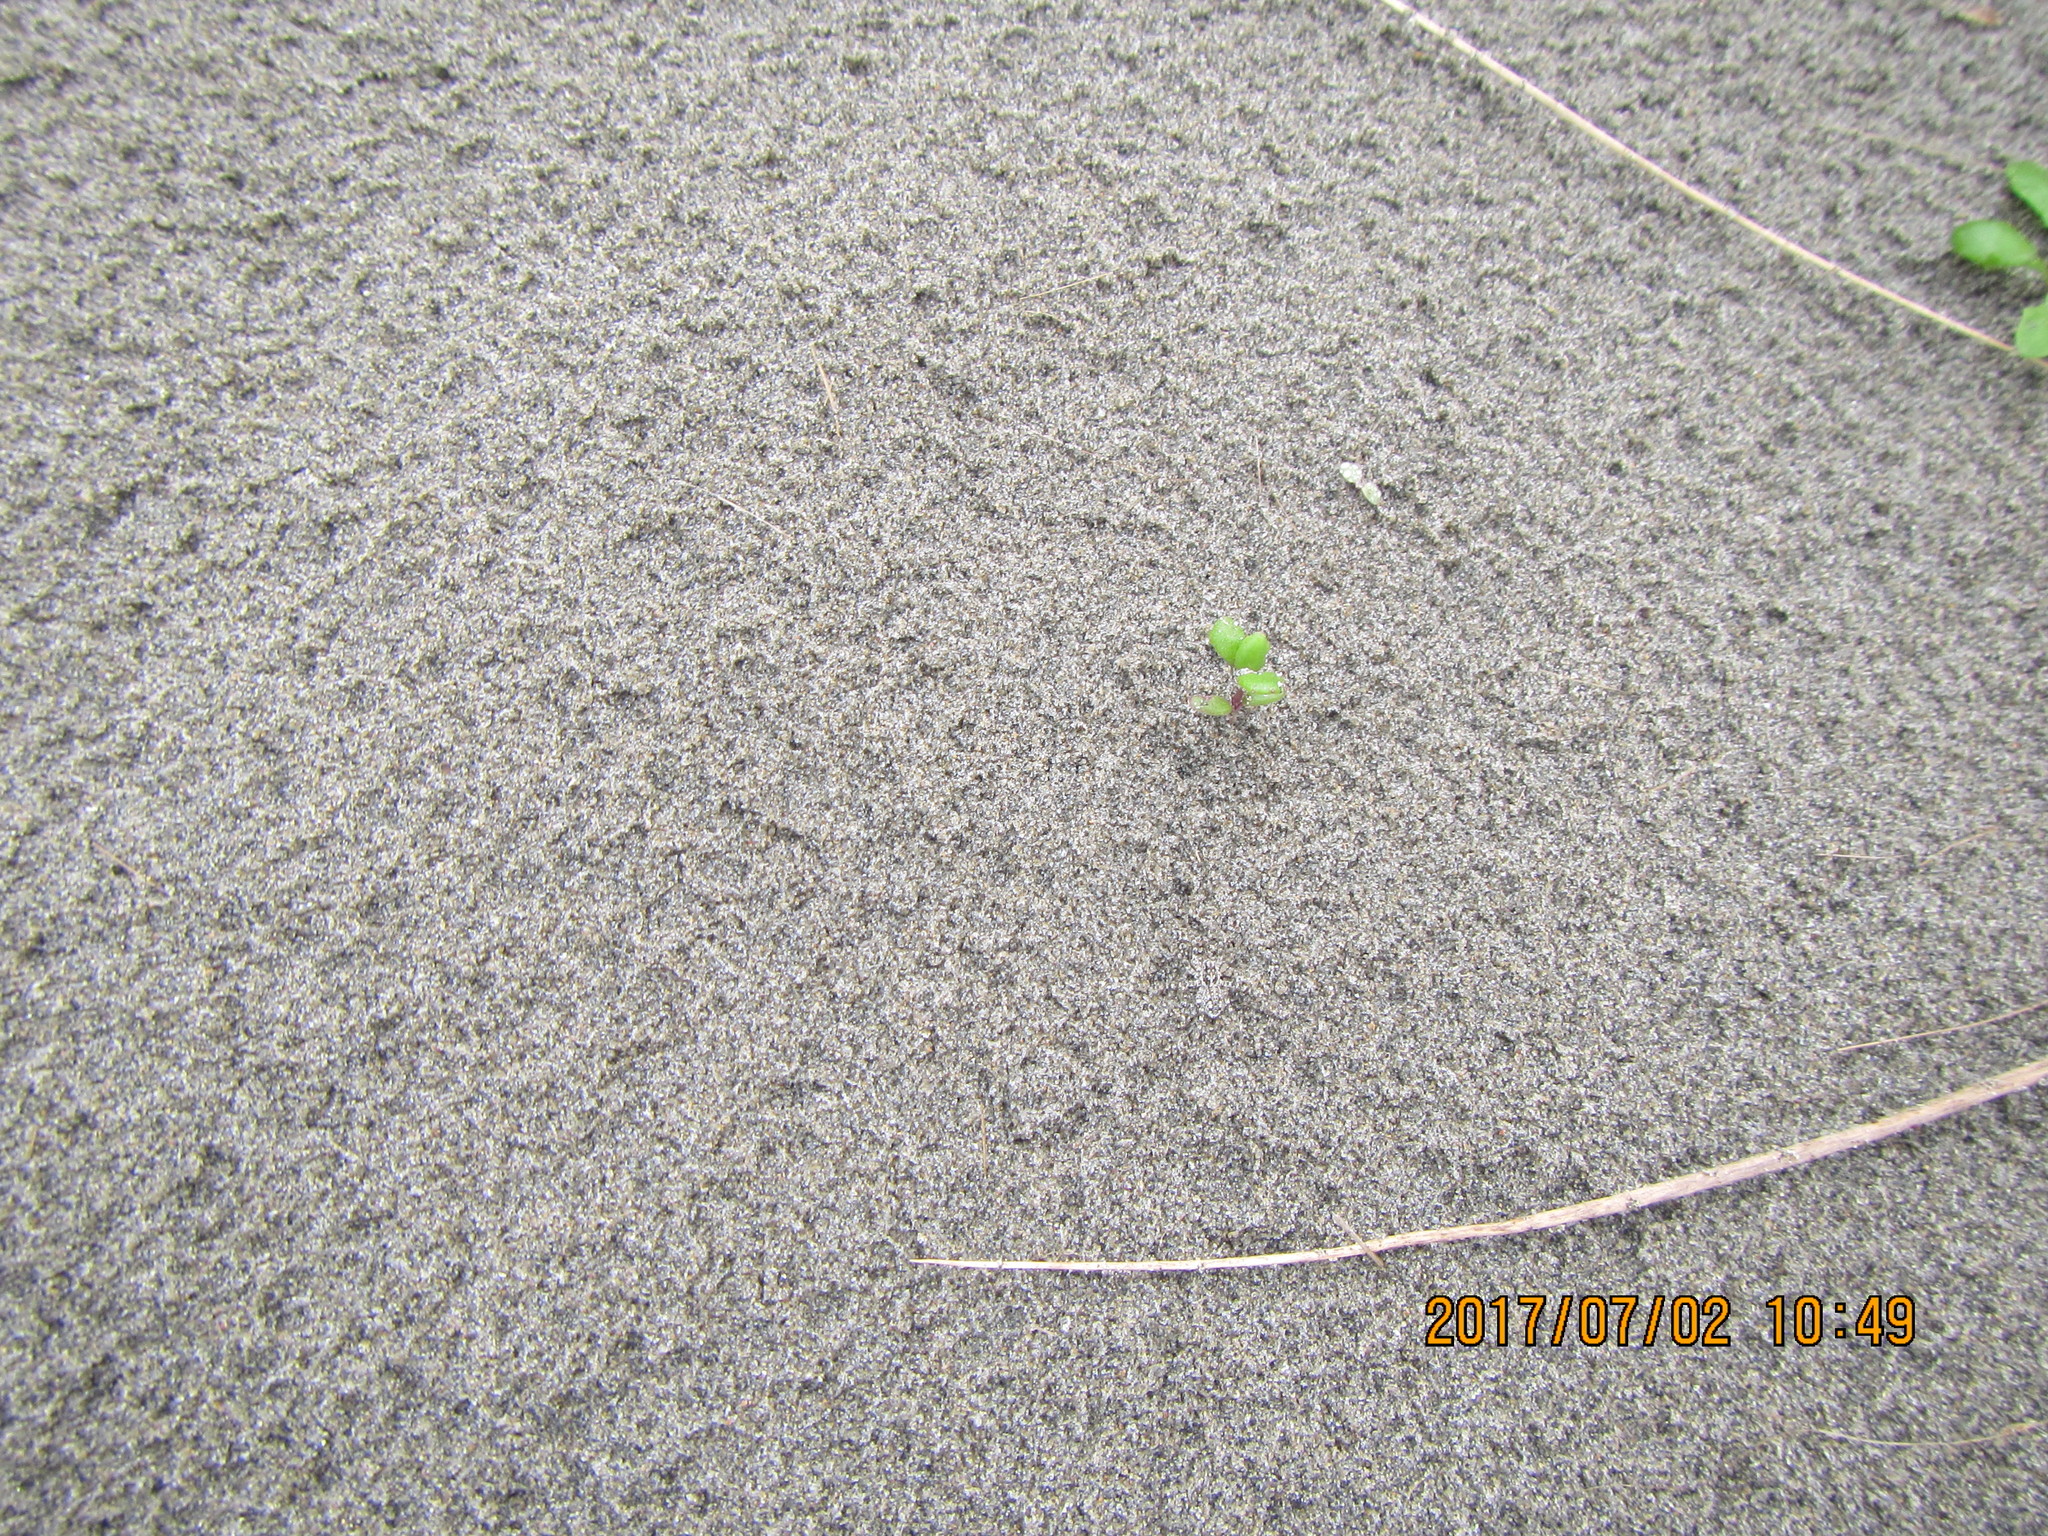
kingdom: Animalia
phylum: Arthropoda
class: Arachnida
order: Araneae
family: Lycosidae
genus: Anoteropsis
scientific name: Anoteropsis litoralis
